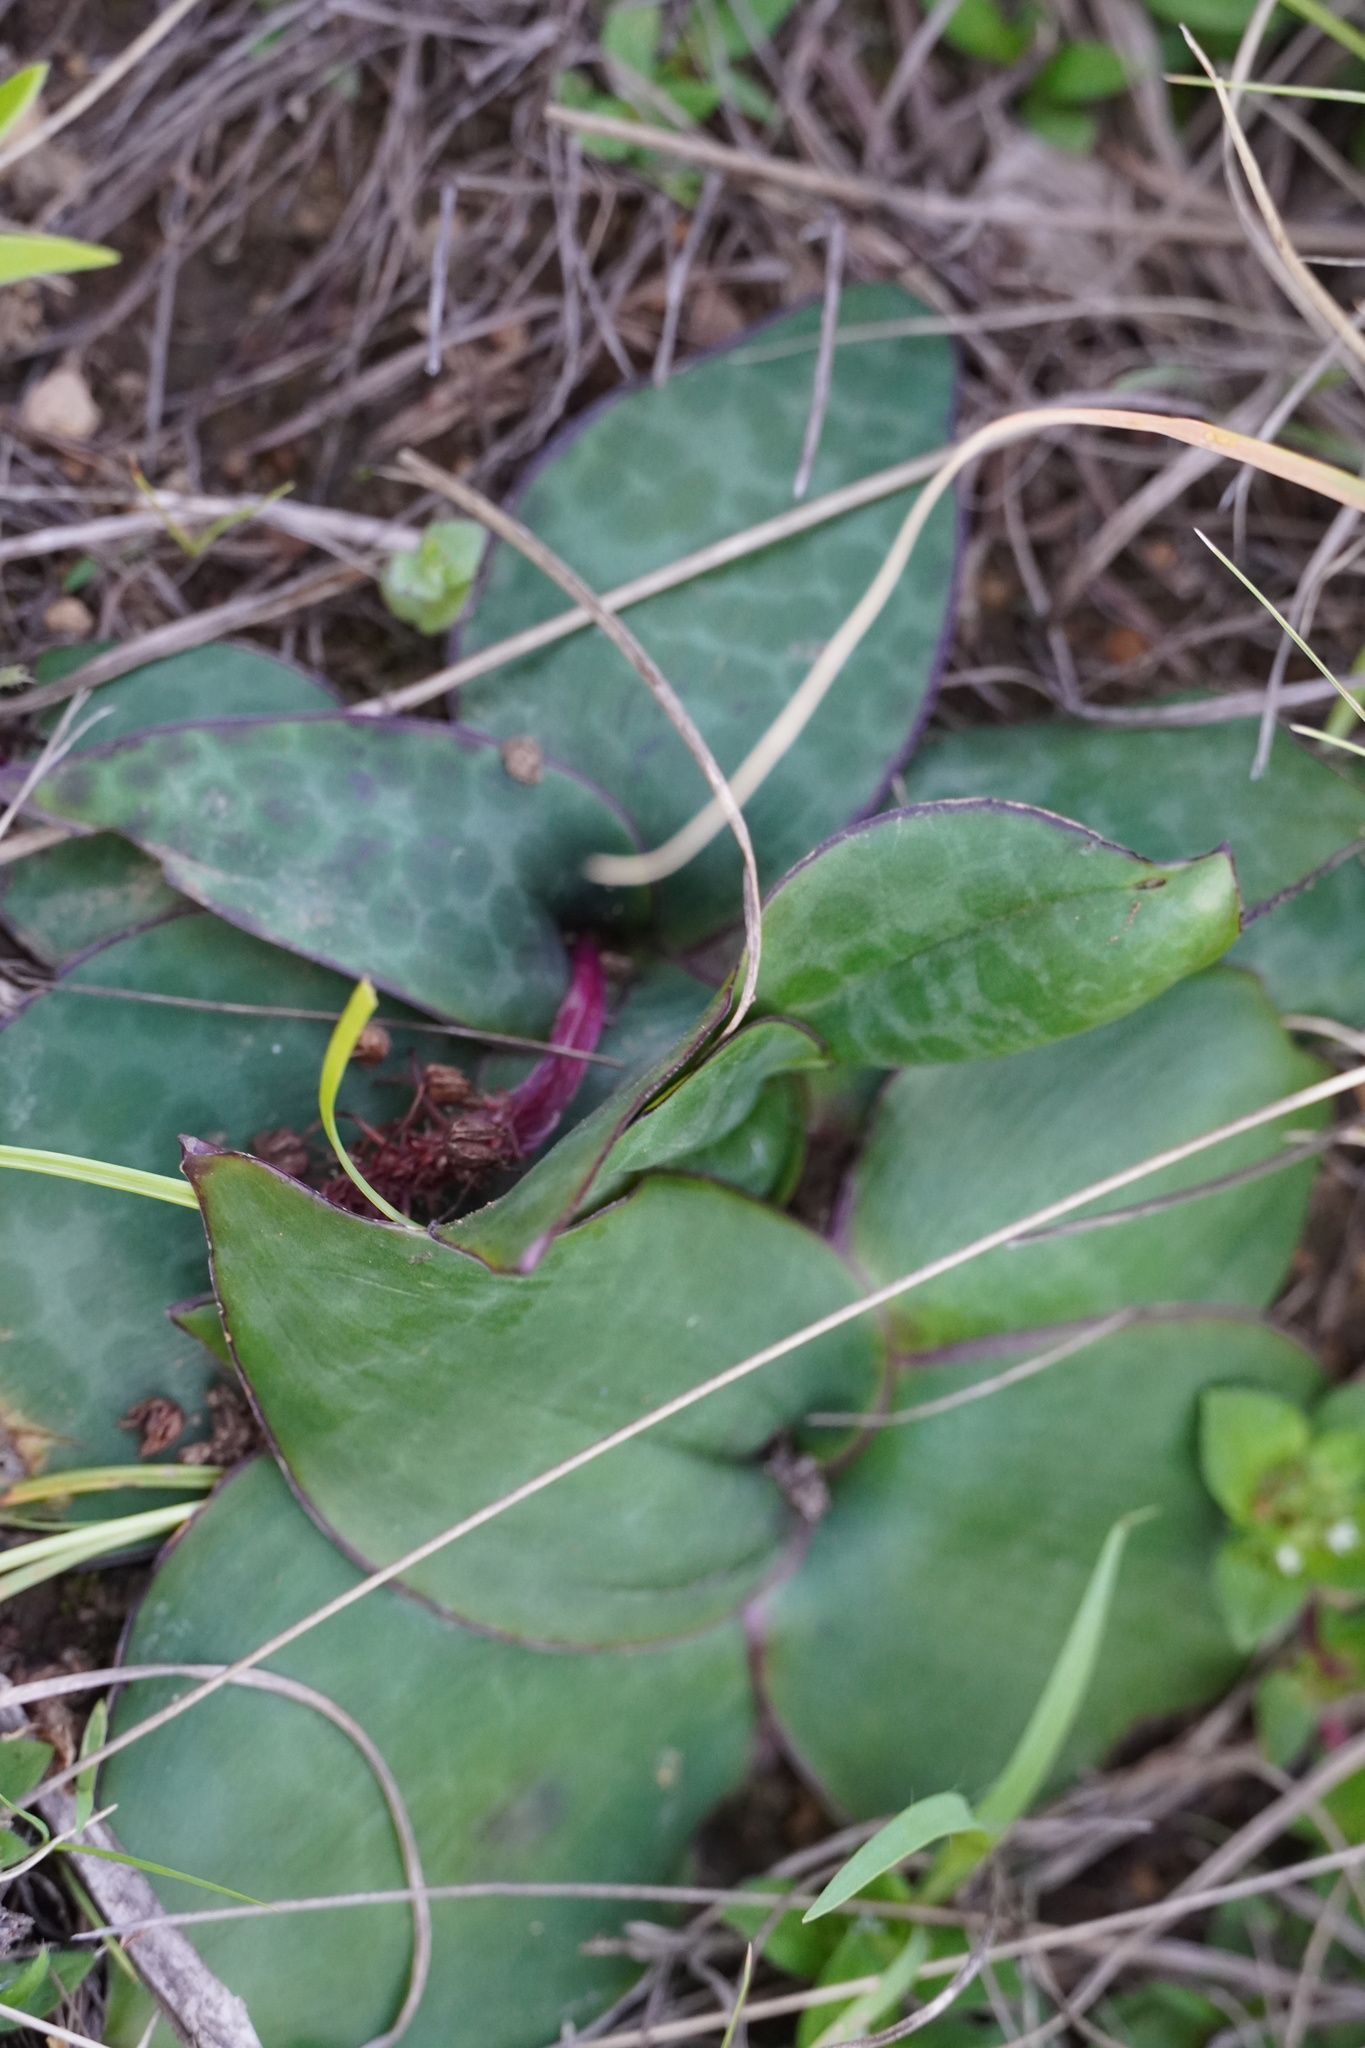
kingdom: Plantae
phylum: Tracheophyta
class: Liliopsida
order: Asparagales
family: Asparagaceae
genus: Ledebouria
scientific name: Ledebouria ovatifolia
